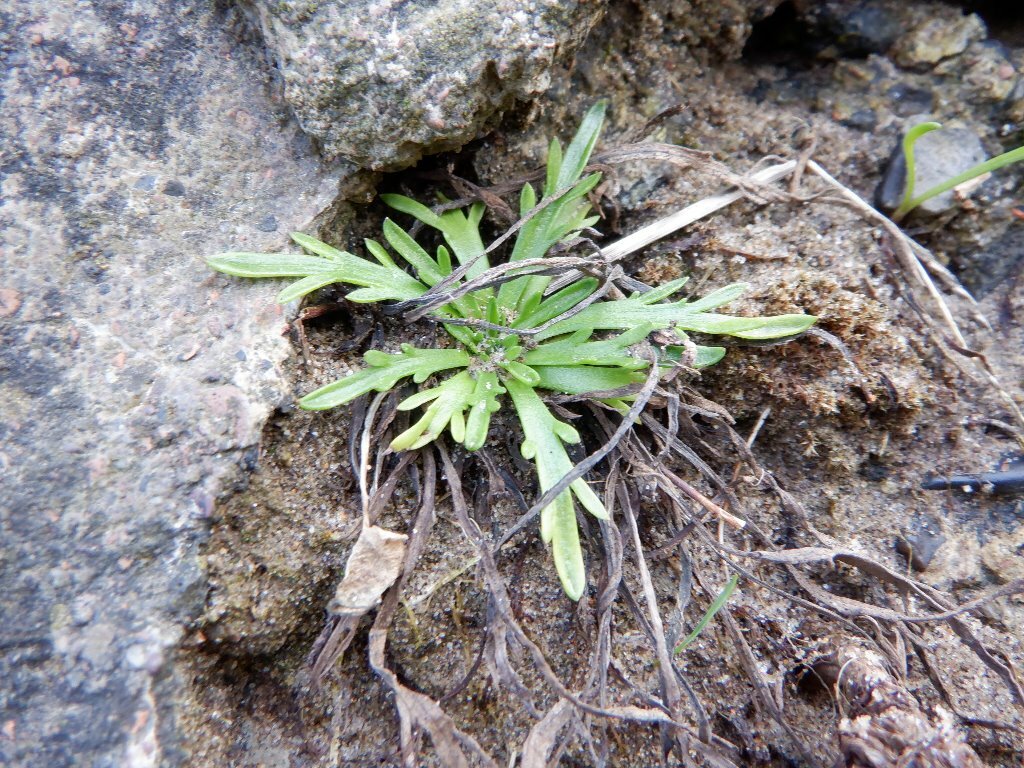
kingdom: Plantae
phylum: Tracheophyta
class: Magnoliopsida
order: Lamiales
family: Plantaginaceae
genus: Plantago
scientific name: Plantago coronopus
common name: Buck's-horn plantain
